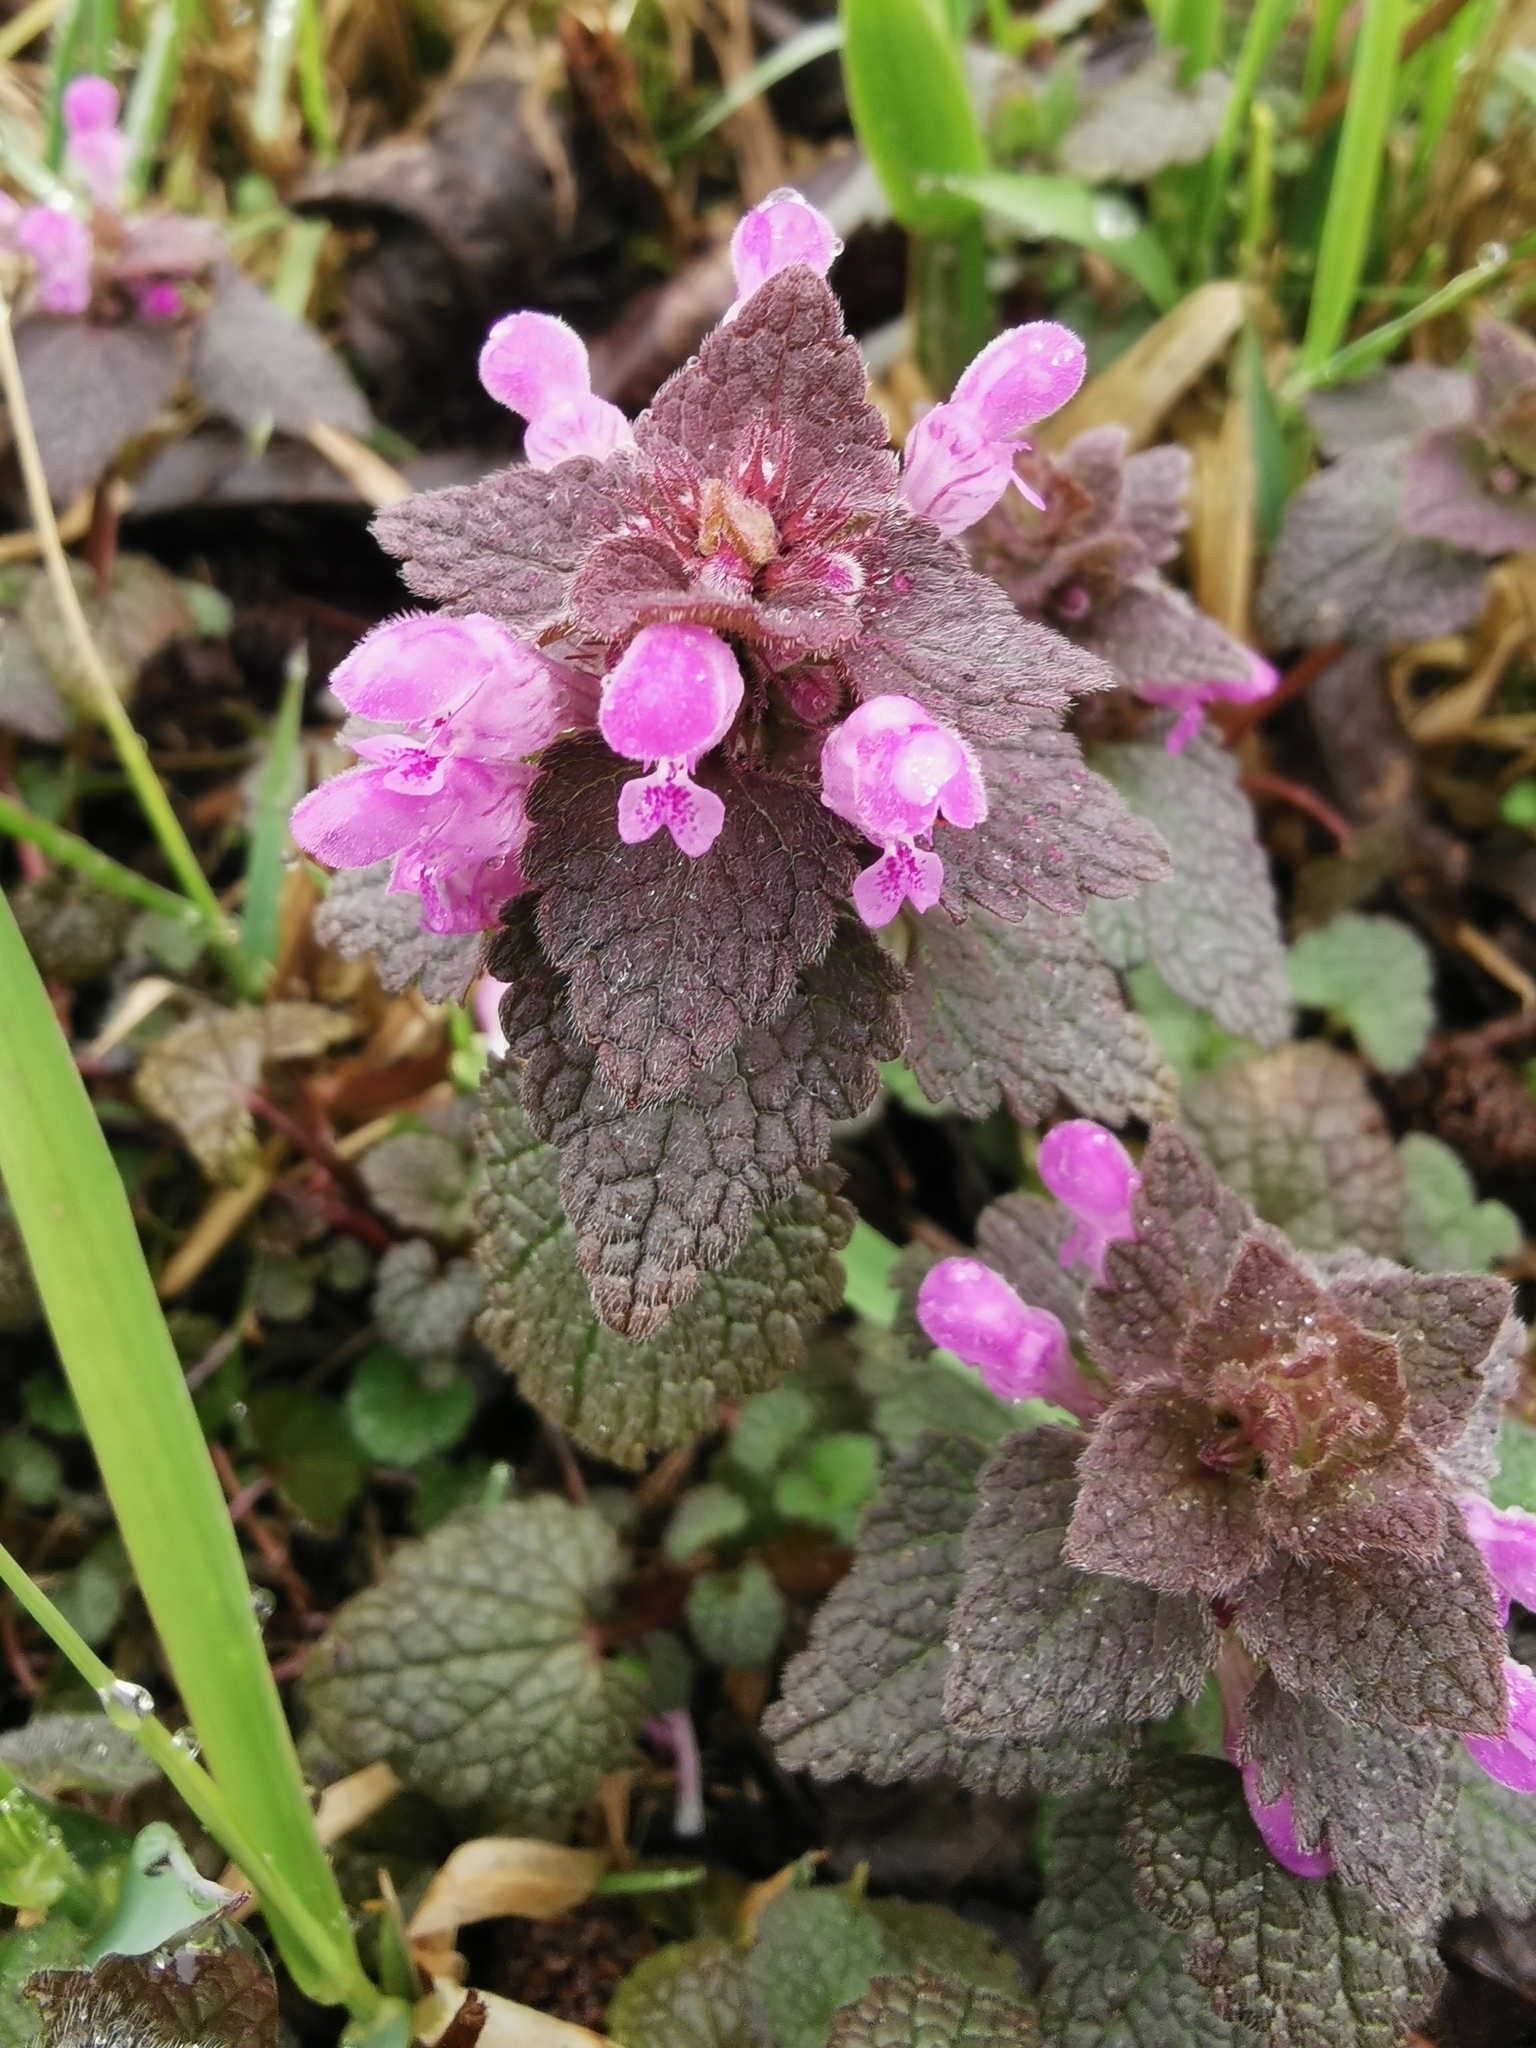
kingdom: Plantae
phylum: Tracheophyta
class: Magnoliopsida
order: Lamiales
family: Lamiaceae
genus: Lamium
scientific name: Lamium purpureum
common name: Red dead-nettle
